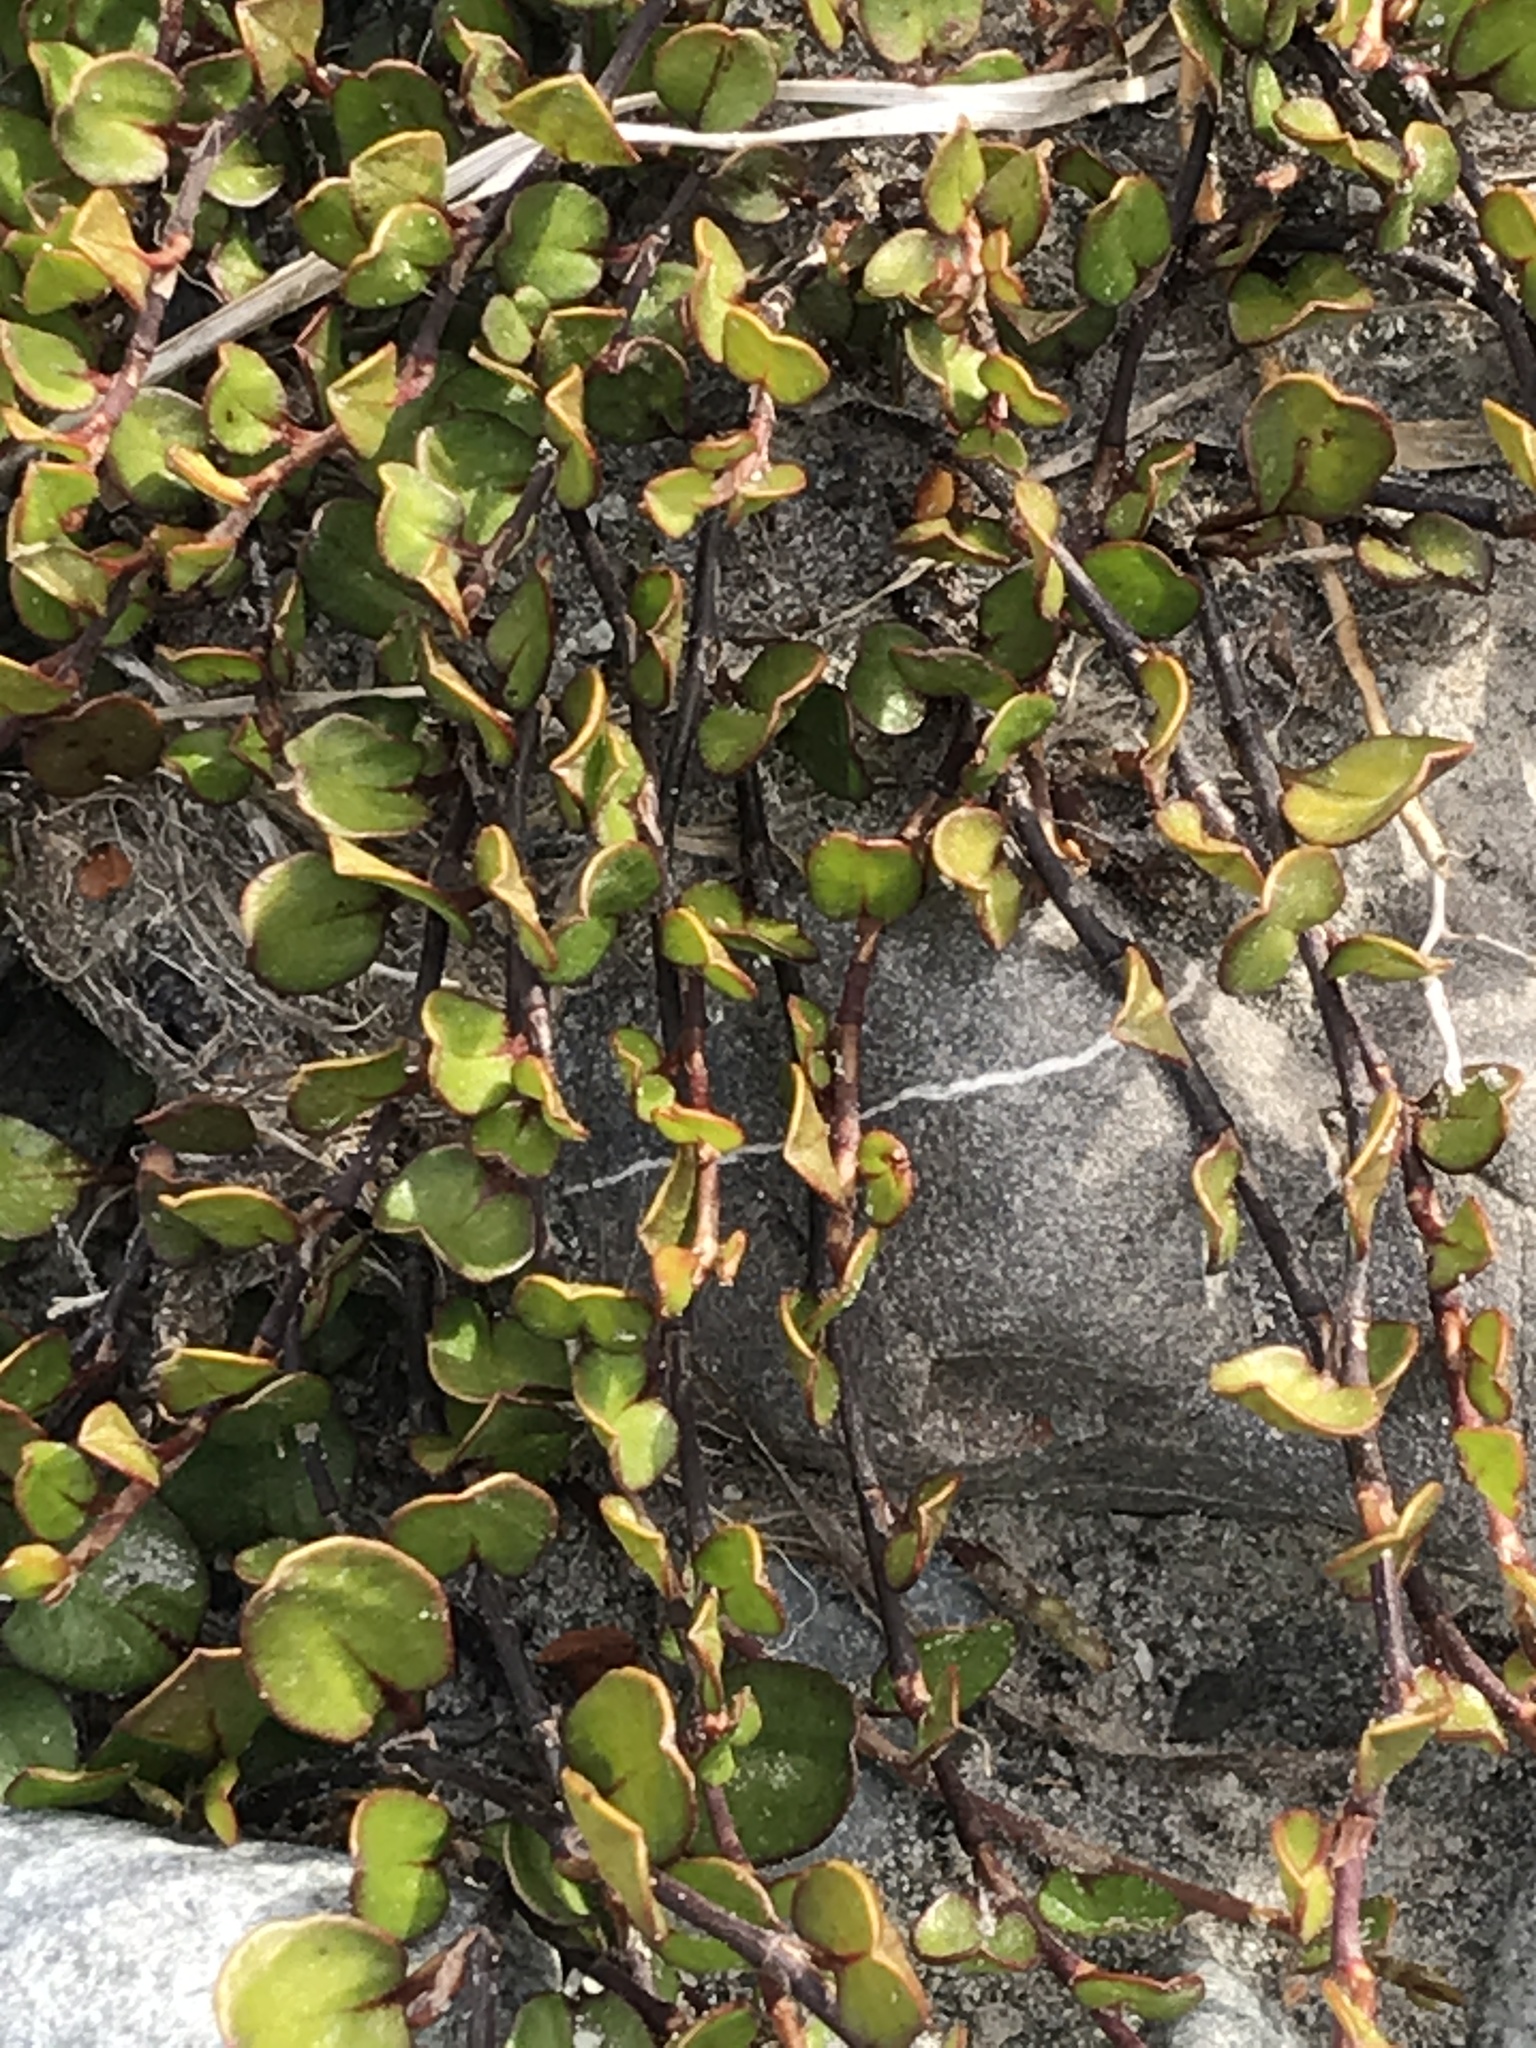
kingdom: Plantae
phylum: Tracheophyta
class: Magnoliopsida
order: Caryophyllales
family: Polygonaceae
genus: Muehlenbeckia
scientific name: Muehlenbeckia axillaris
